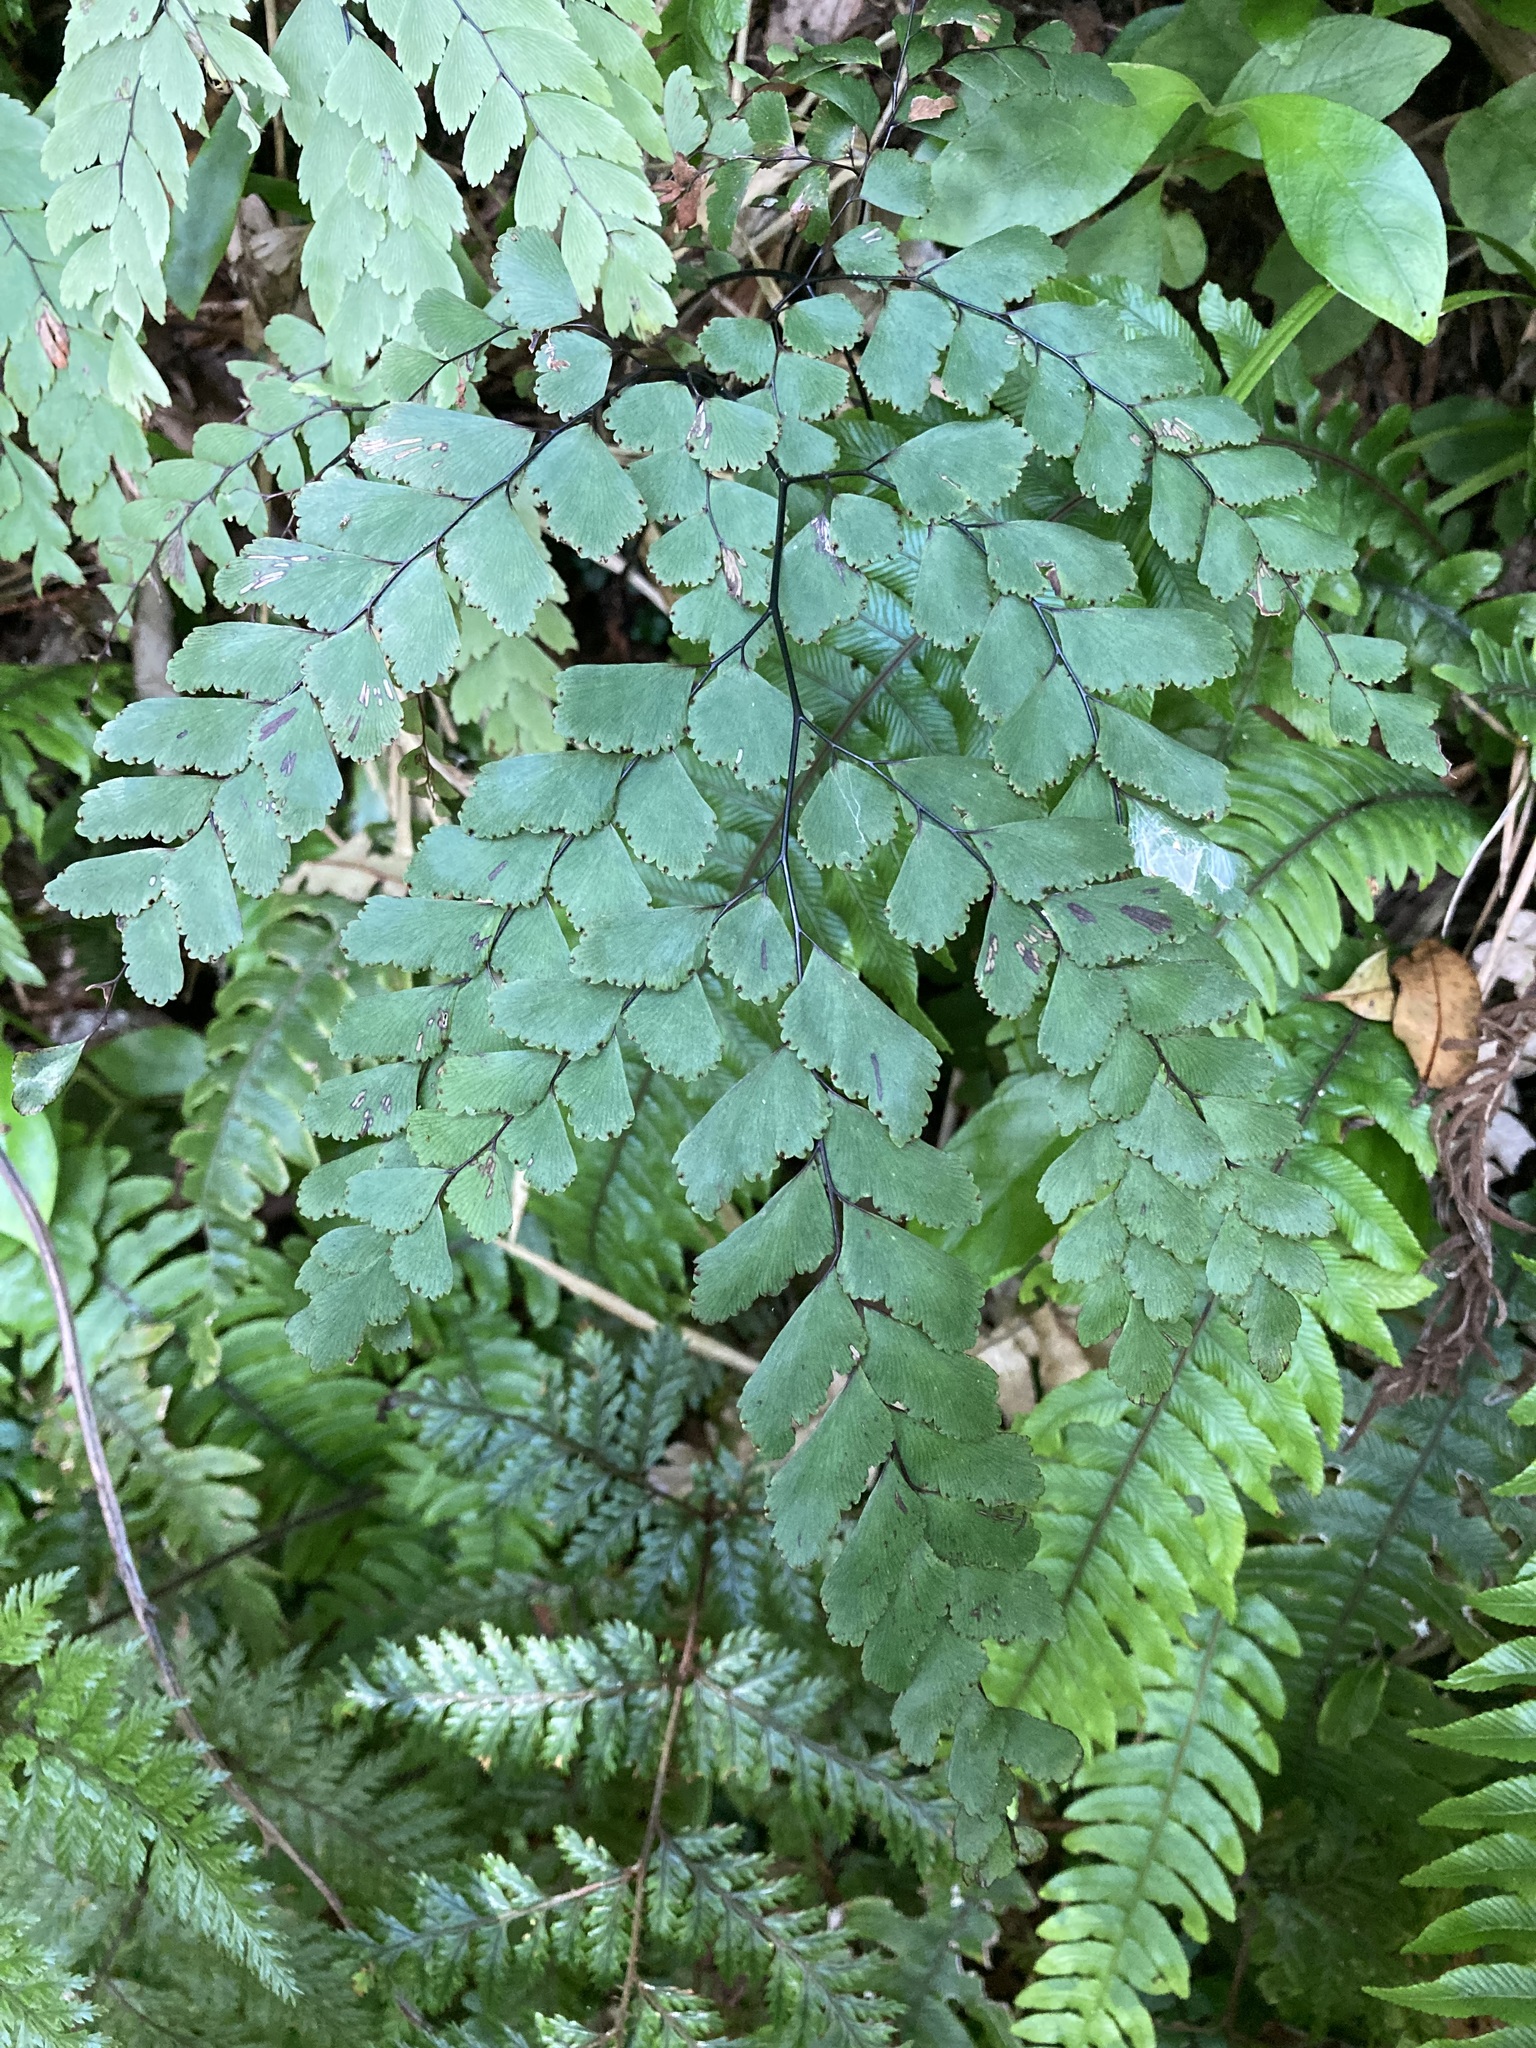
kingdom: Plantae
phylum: Tracheophyta
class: Polypodiopsida
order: Polypodiales
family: Pteridaceae
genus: Adiantum
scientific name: Adiantum cunninghamii
